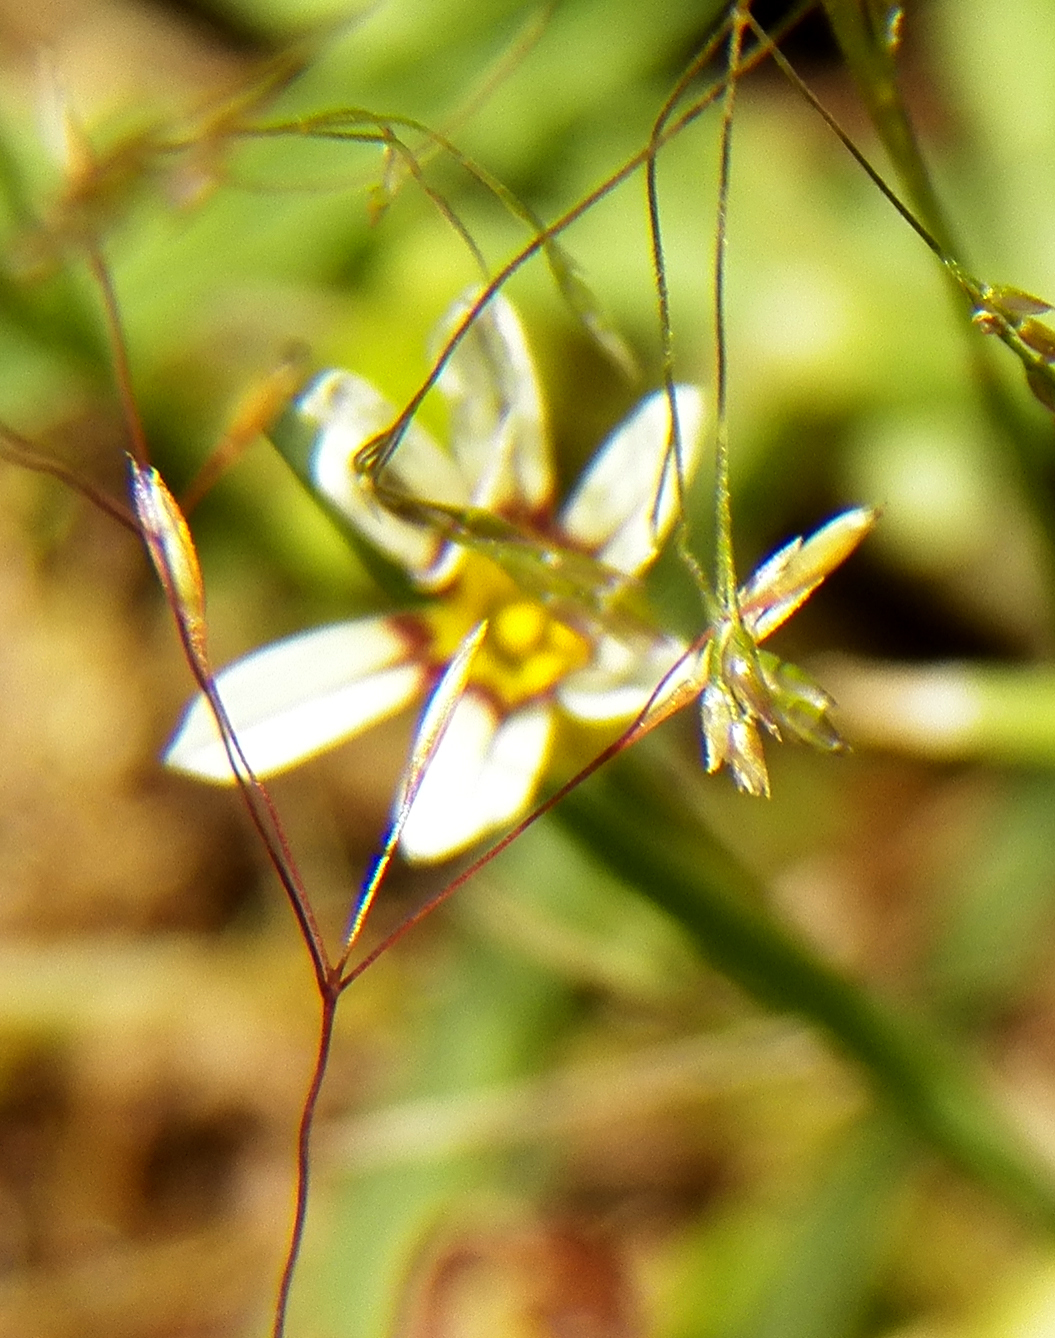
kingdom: Plantae
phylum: Tracheophyta
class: Liliopsida
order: Asparagales
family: Iridaceae
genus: Sisyrinchium
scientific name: Sisyrinchium micranthum
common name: Bermuda pigroot
